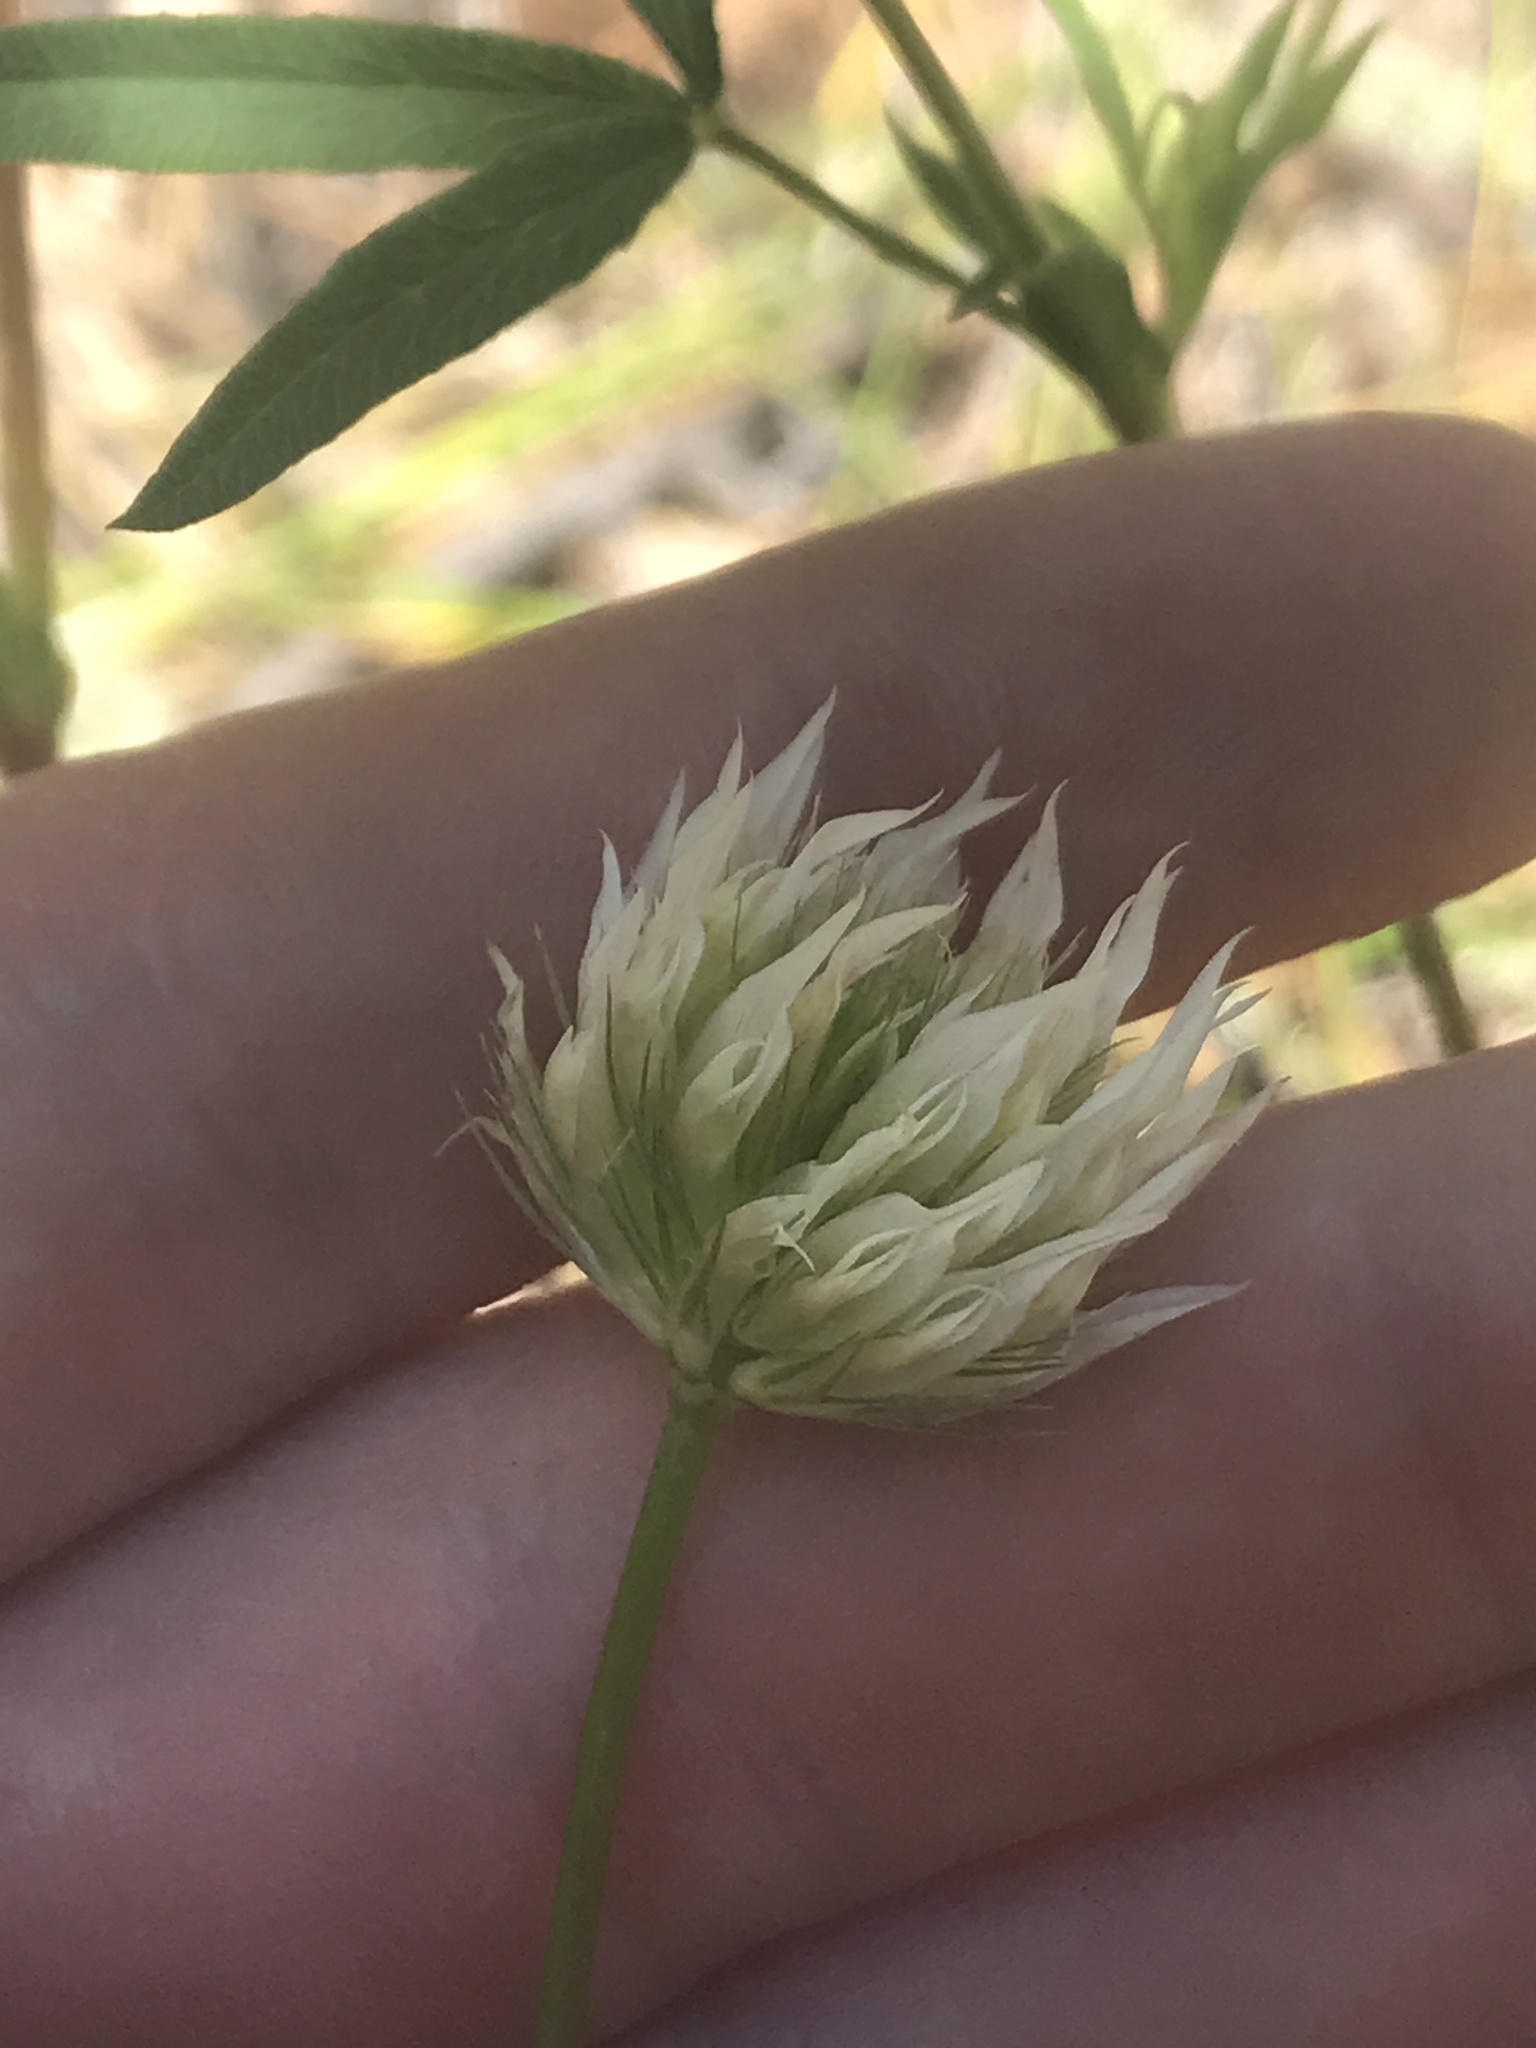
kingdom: Plantae
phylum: Tracheophyta
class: Magnoliopsida
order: Fabales
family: Fabaceae
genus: Trifolium
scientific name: Trifolium longipes
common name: Long-stalk clover
